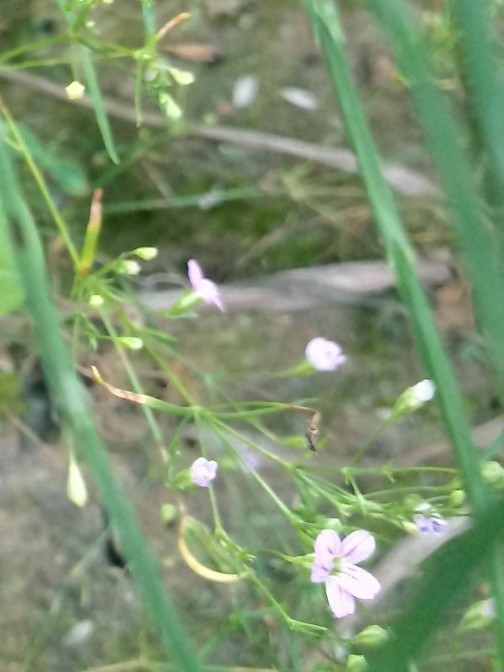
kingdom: Plantae
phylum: Tracheophyta
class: Magnoliopsida
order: Caryophyllales
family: Caryophyllaceae
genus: Psammophiliella
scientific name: Psammophiliella muralis
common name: Cushion baby's-breath
